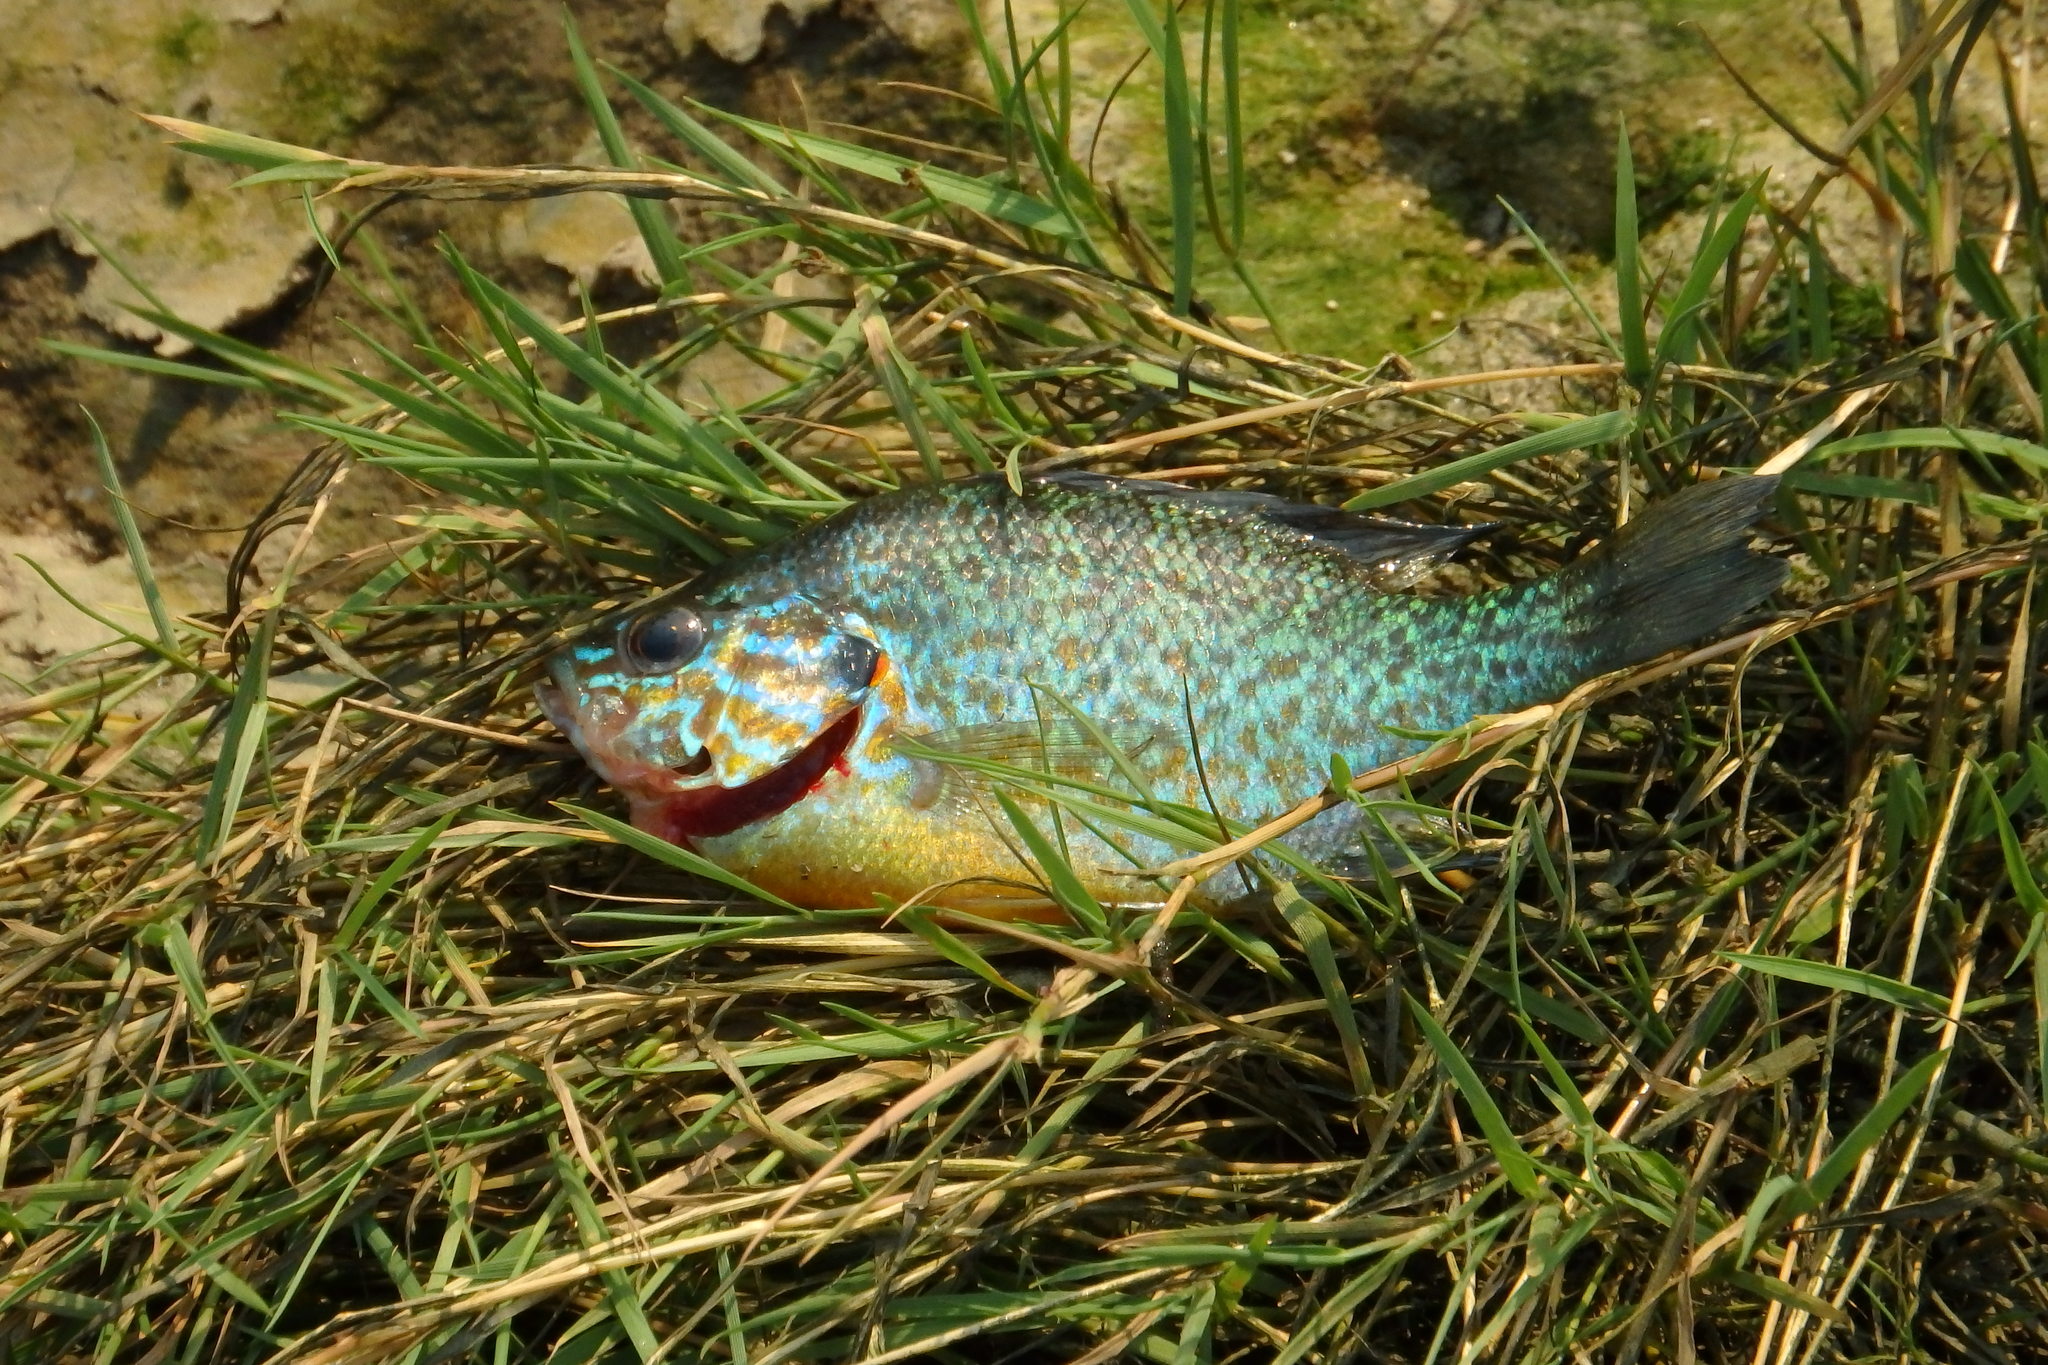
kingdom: Animalia
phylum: Chordata
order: Perciformes
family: Centrarchidae
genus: Lepomis
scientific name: Lepomis gibbosus
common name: Pumpkinseed
